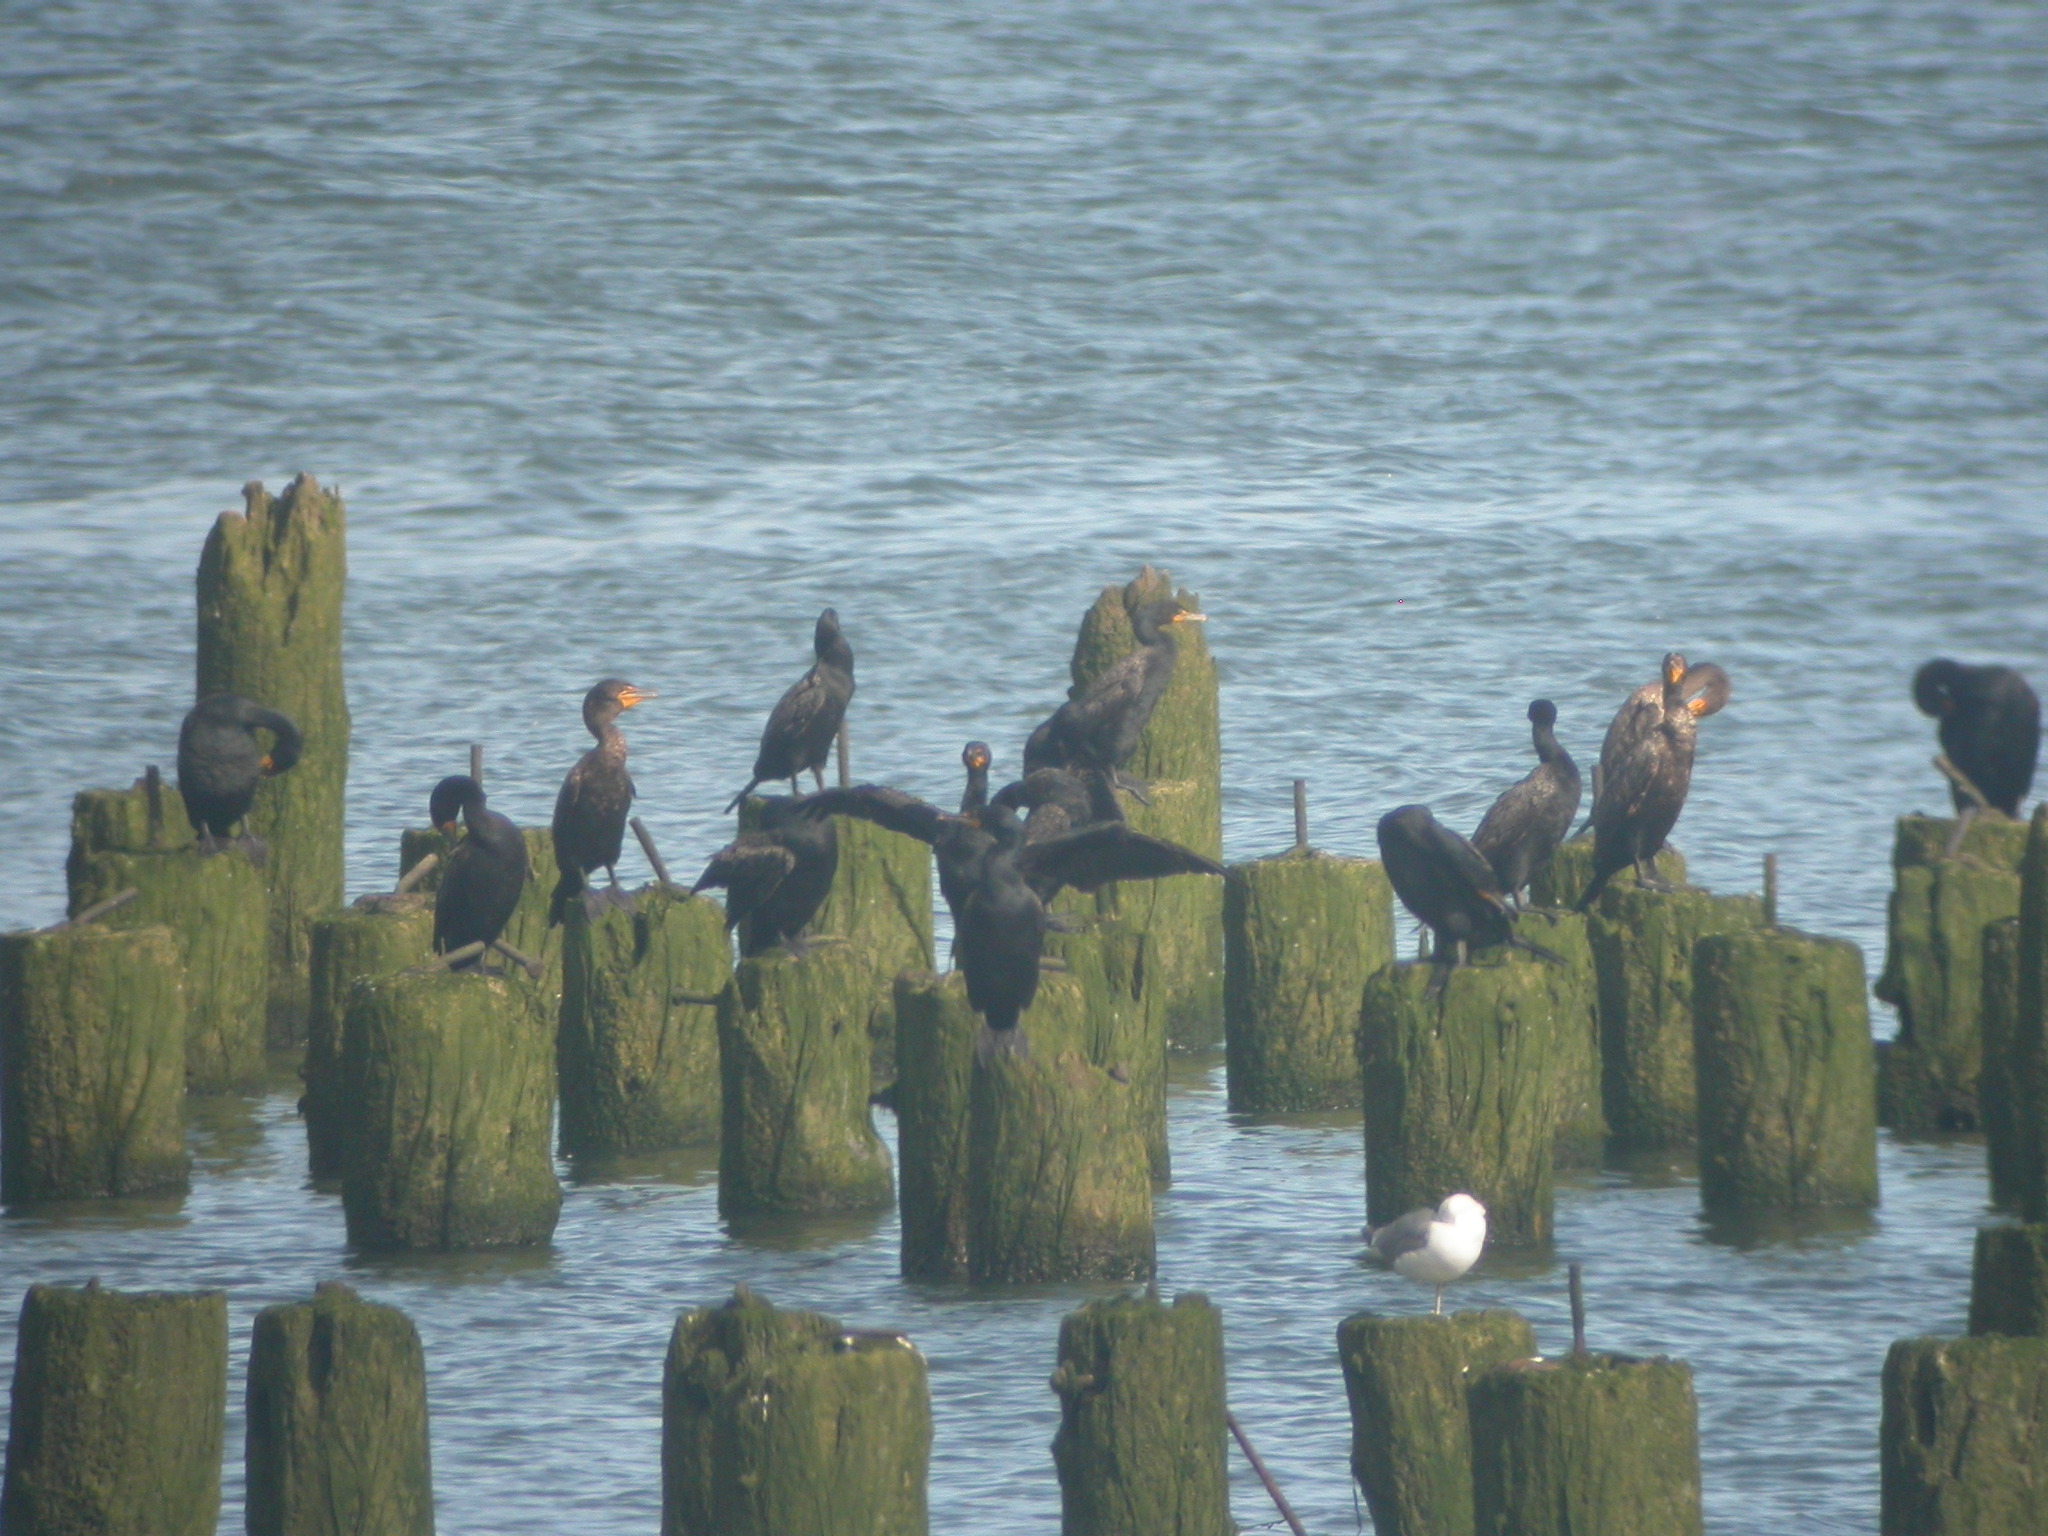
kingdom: Animalia
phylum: Chordata
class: Aves
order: Suliformes
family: Phalacrocoracidae
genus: Phalacrocorax
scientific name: Phalacrocorax auritus
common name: Double-crested cormorant
